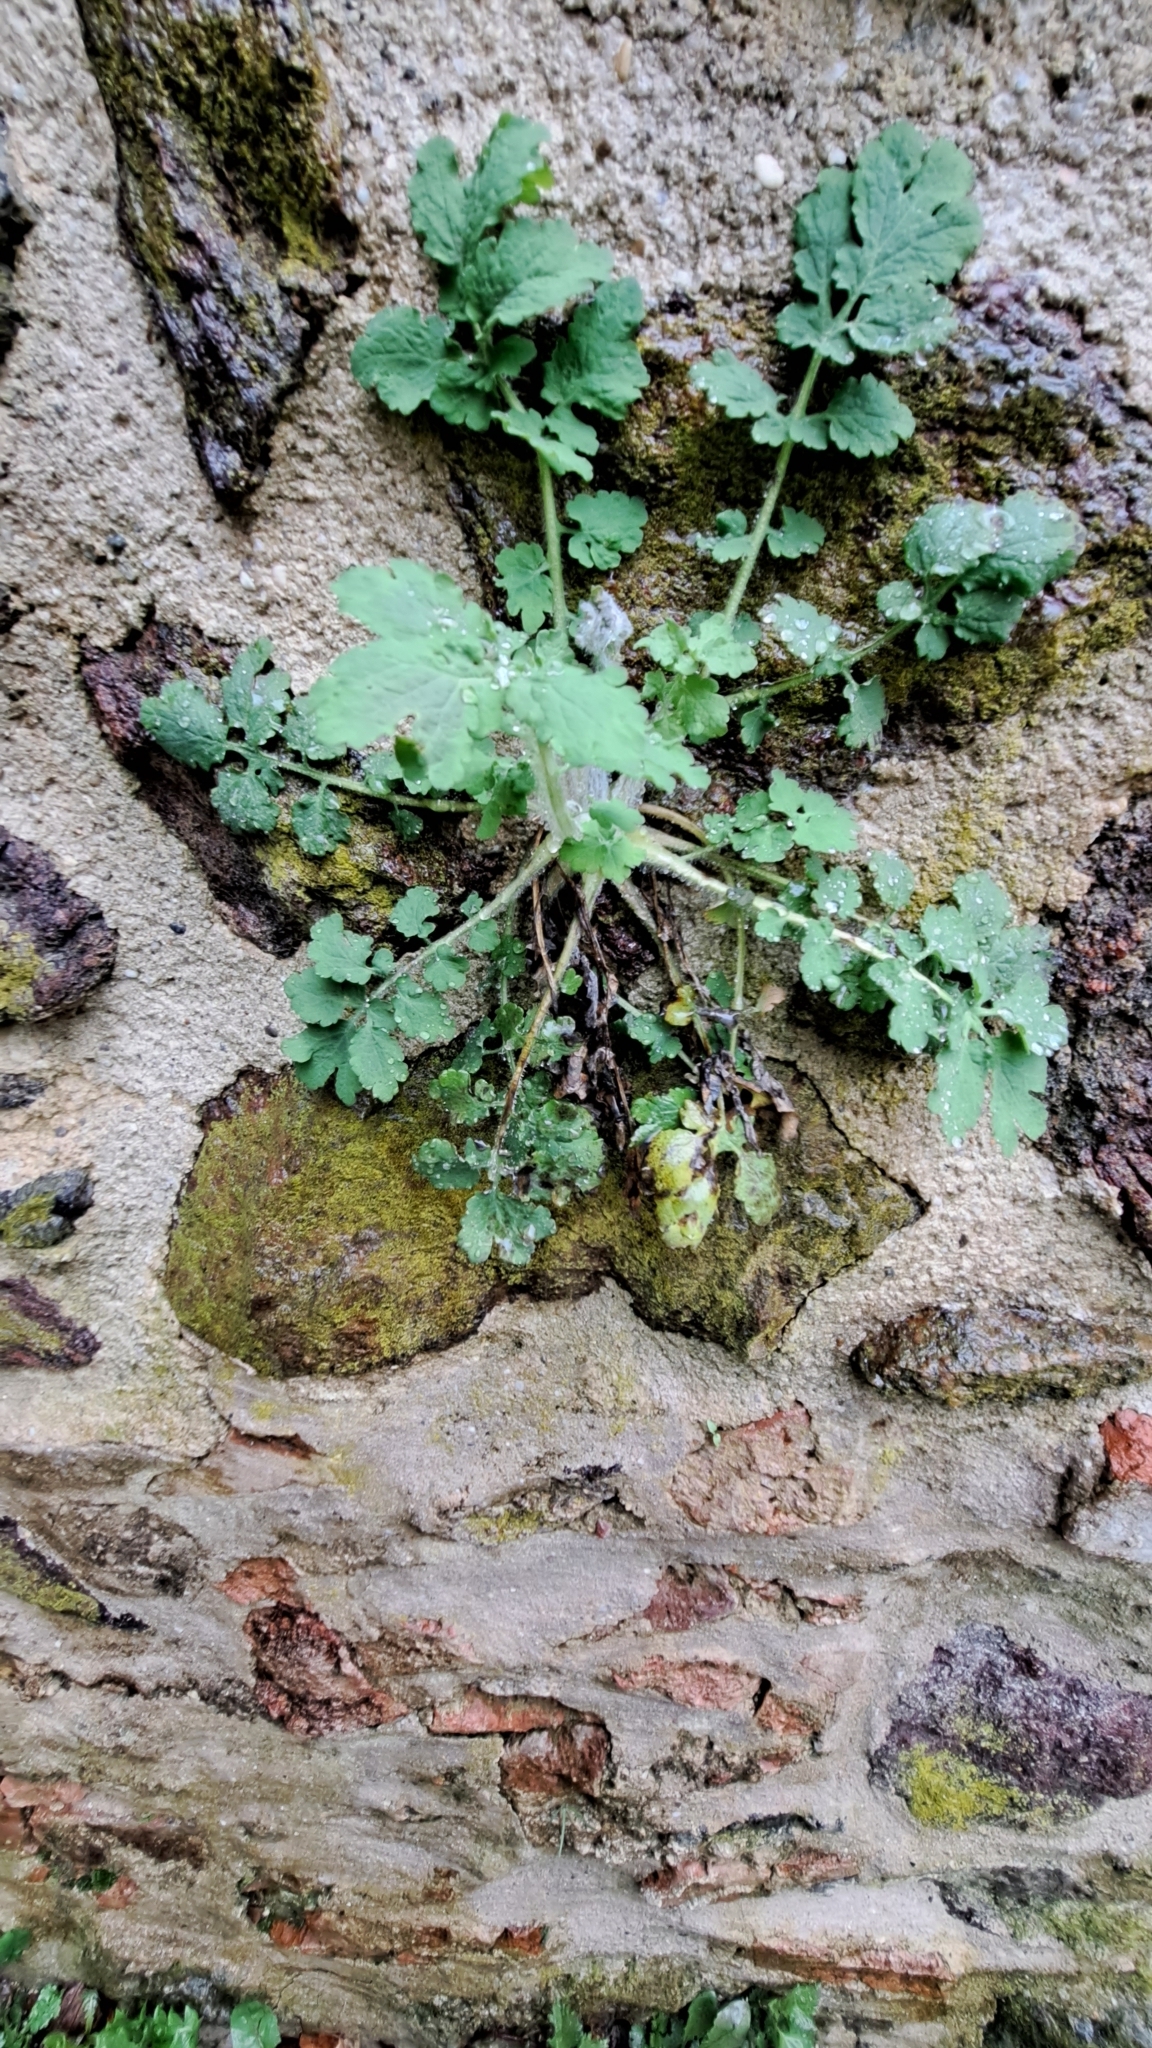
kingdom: Plantae
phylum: Tracheophyta
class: Magnoliopsida
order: Ranunculales
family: Papaveraceae
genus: Chelidonium
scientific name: Chelidonium majus
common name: Greater celandine
